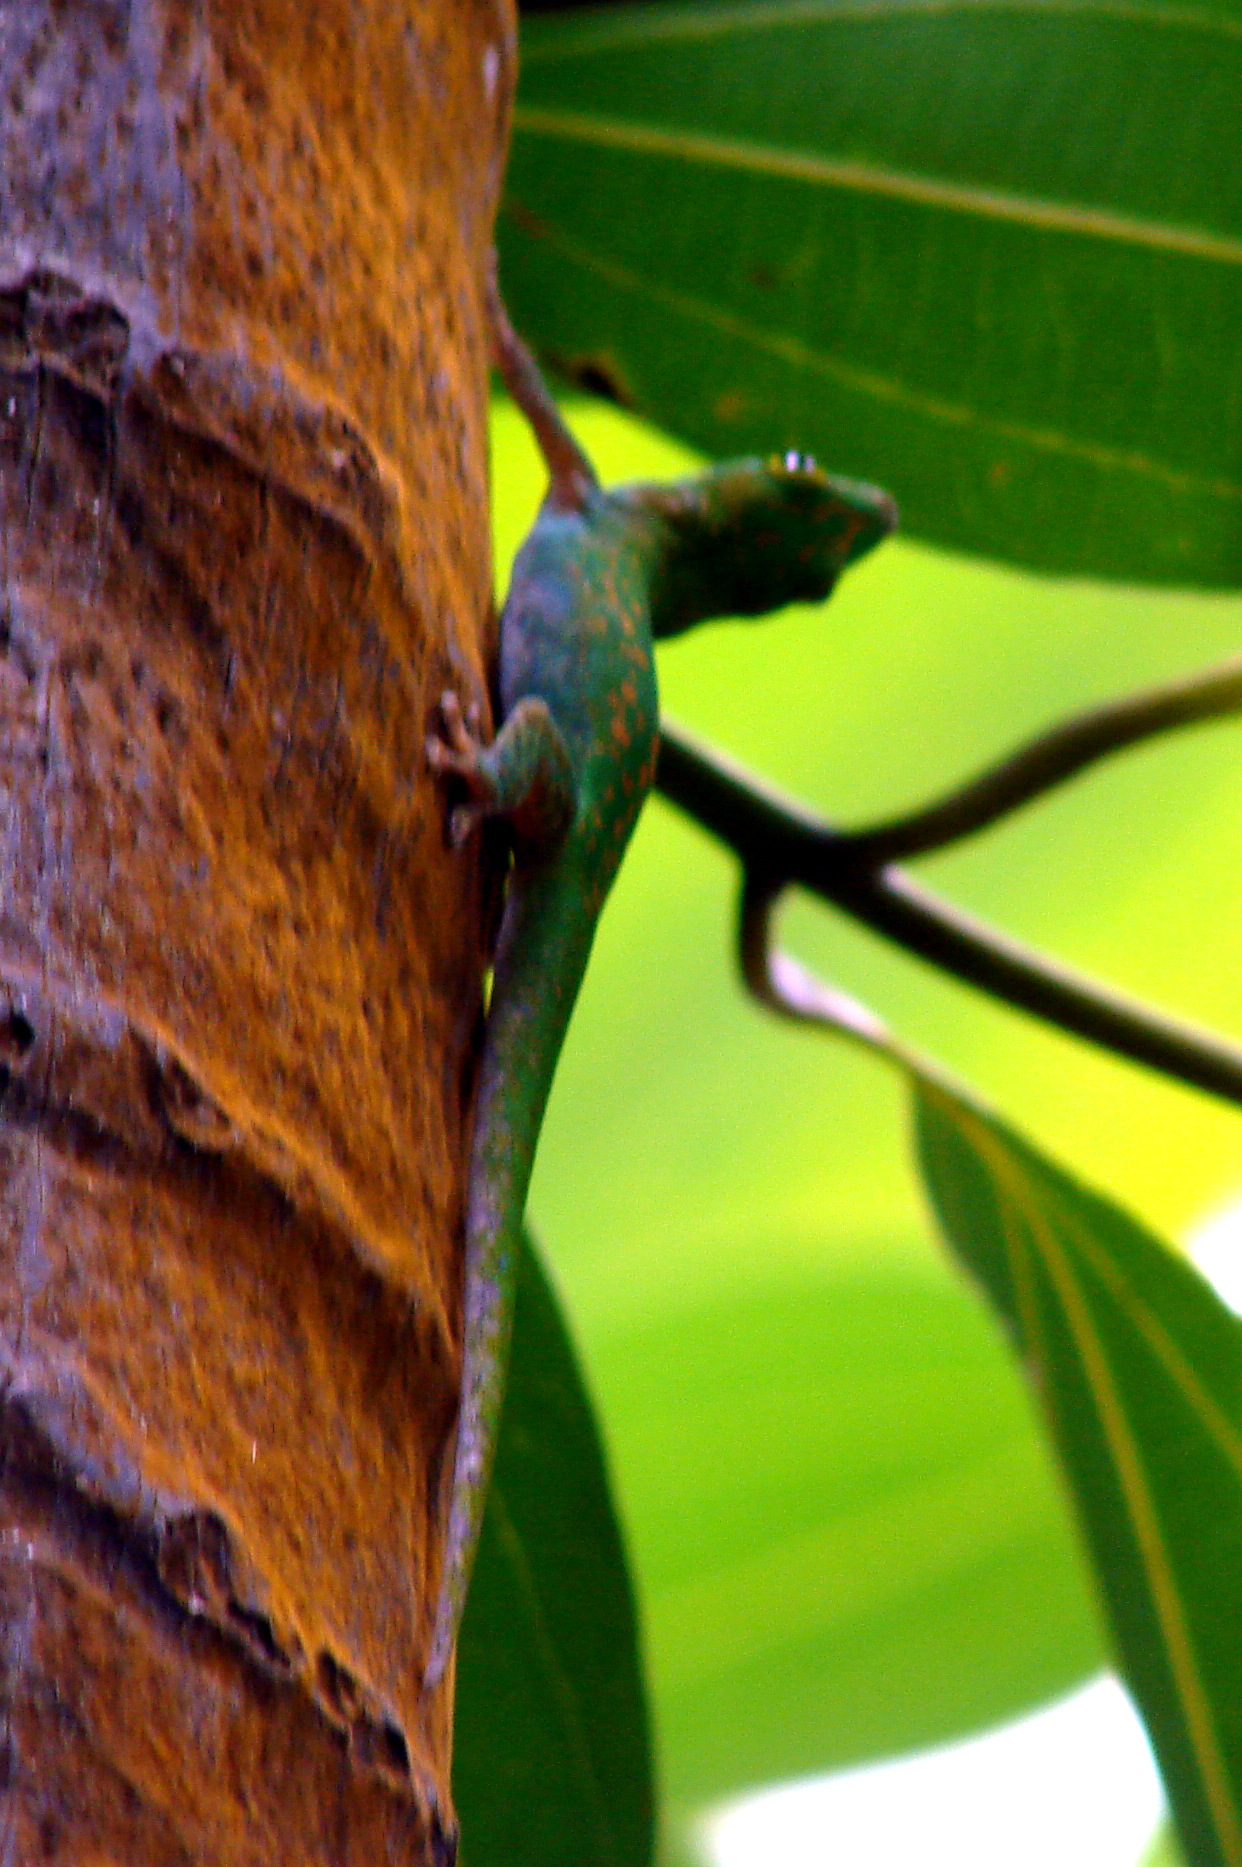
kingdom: Animalia
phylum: Chordata
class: Squamata
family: Gekkonidae
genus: Phelsuma
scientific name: Phelsuma sundbergi
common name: Seychelles giant day gecko
